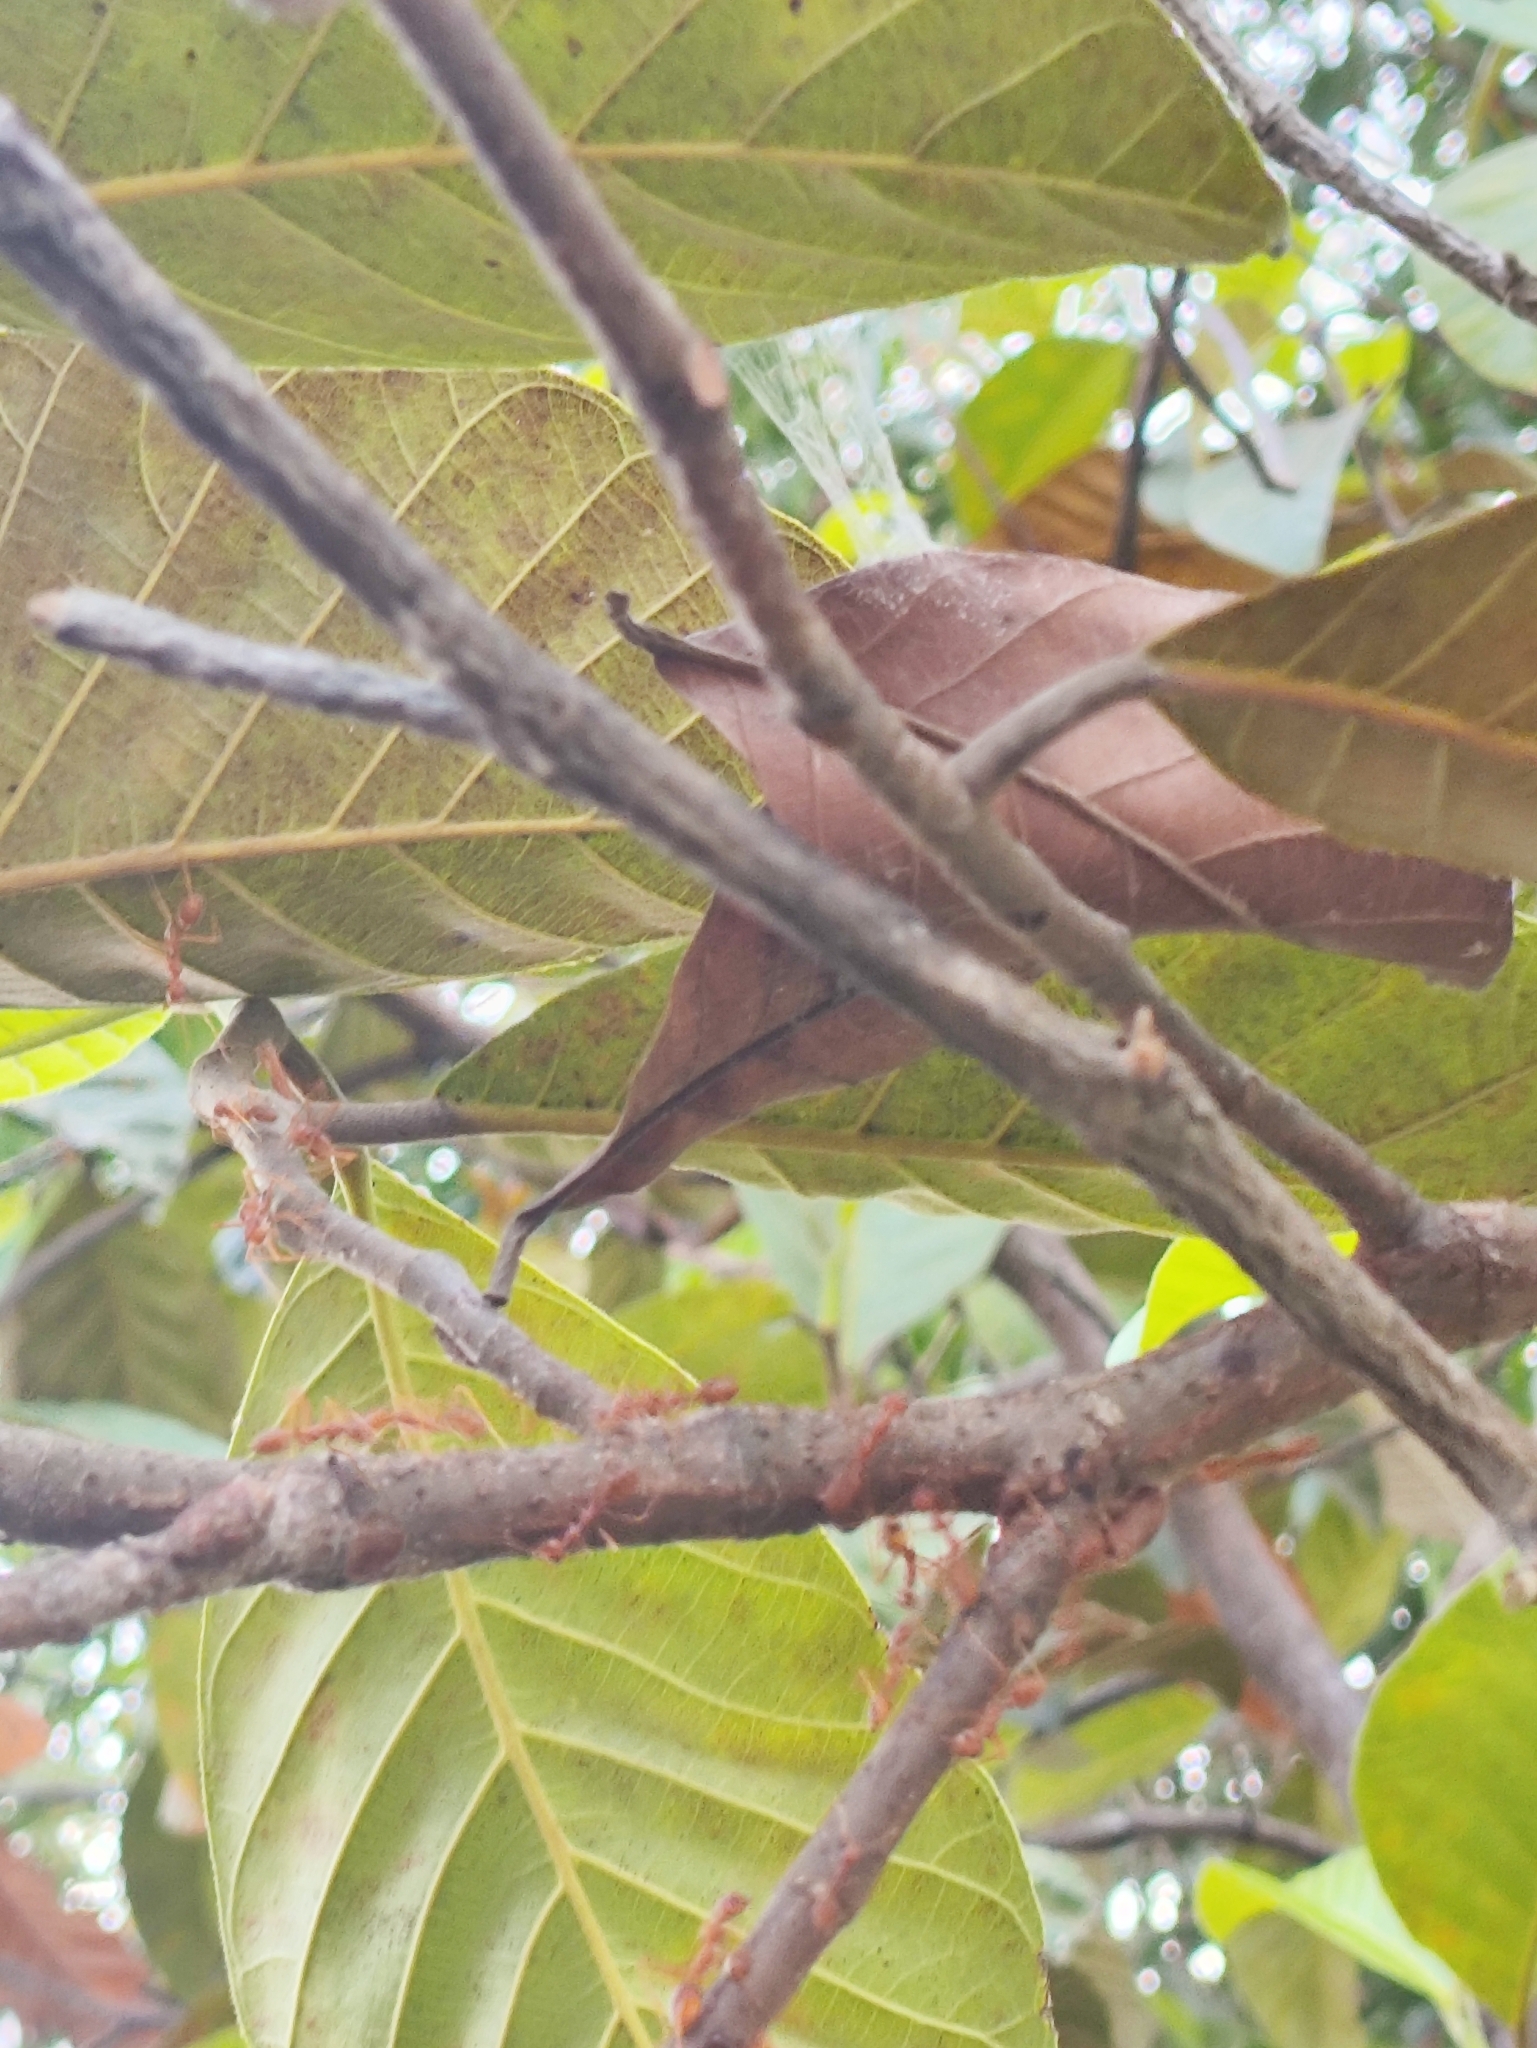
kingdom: Animalia
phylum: Arthropoda
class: Insecta
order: Hymenoptera
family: Formicidae
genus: Oecophylla
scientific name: Oecophylla smaragdina
